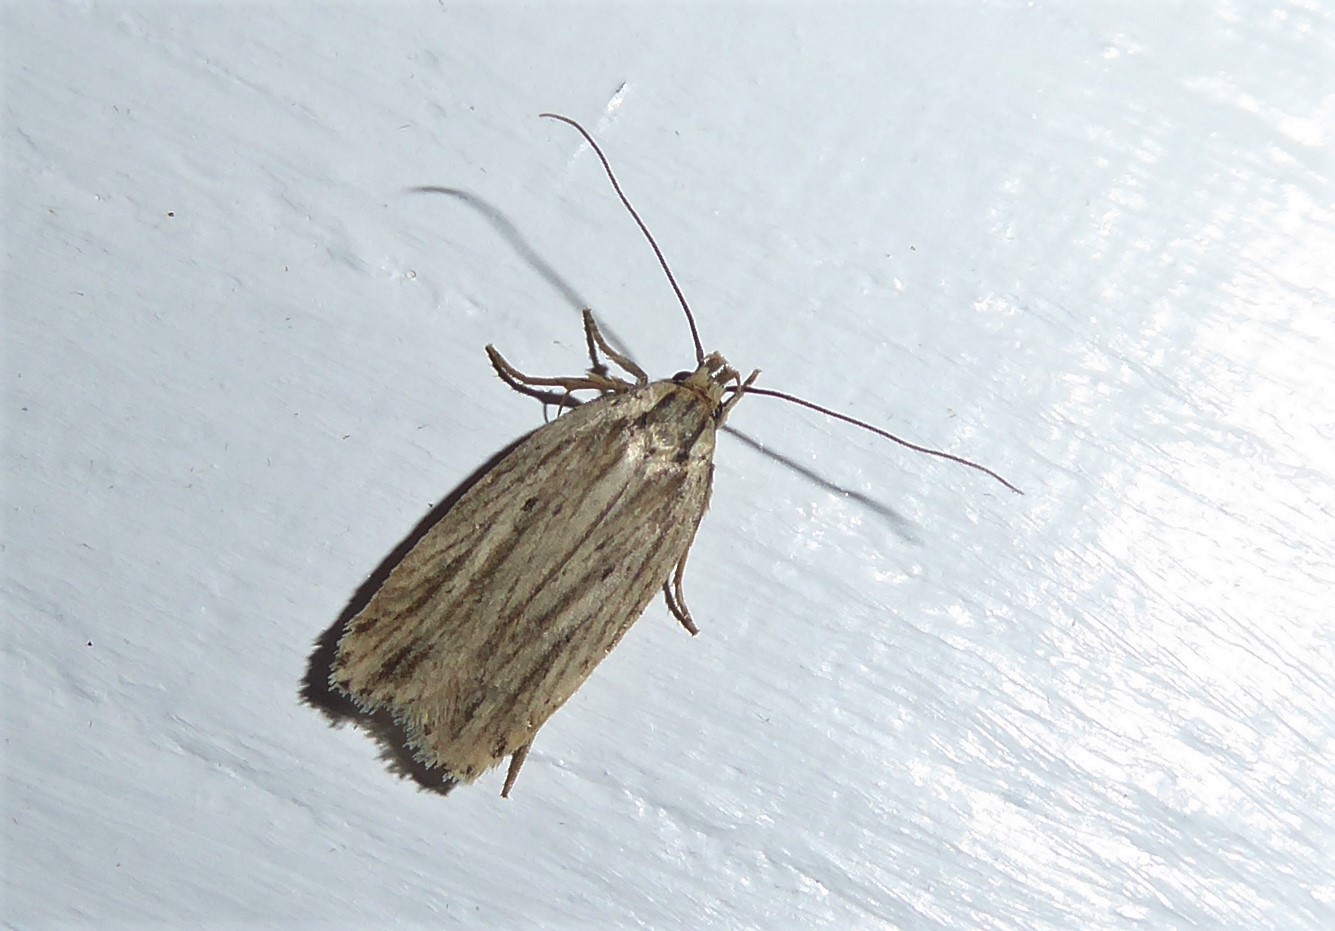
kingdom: Animalia
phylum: Arthropoda
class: Insecta
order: Lepidoptera
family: Depressariidae
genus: Agonopterix
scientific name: Agonopterix
